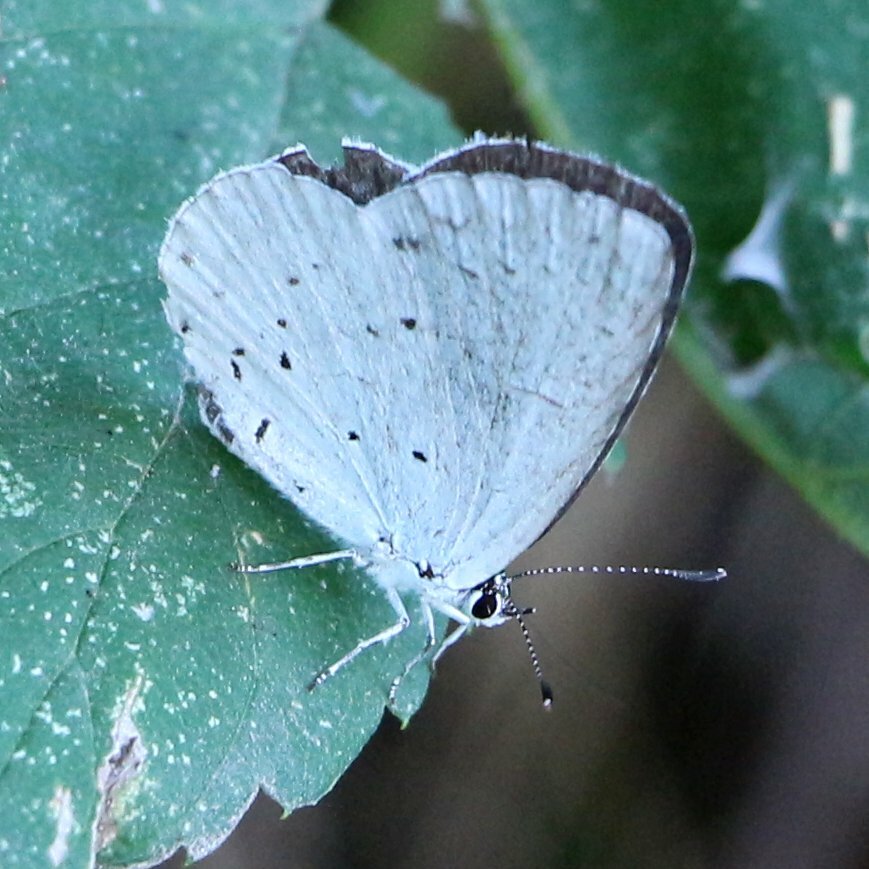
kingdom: Animalia
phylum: Arthropoda
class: Insecta
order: Lepidoptera
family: Lycaenidae
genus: Celastrina
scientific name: Celastrina argiolus
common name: Holly blue
